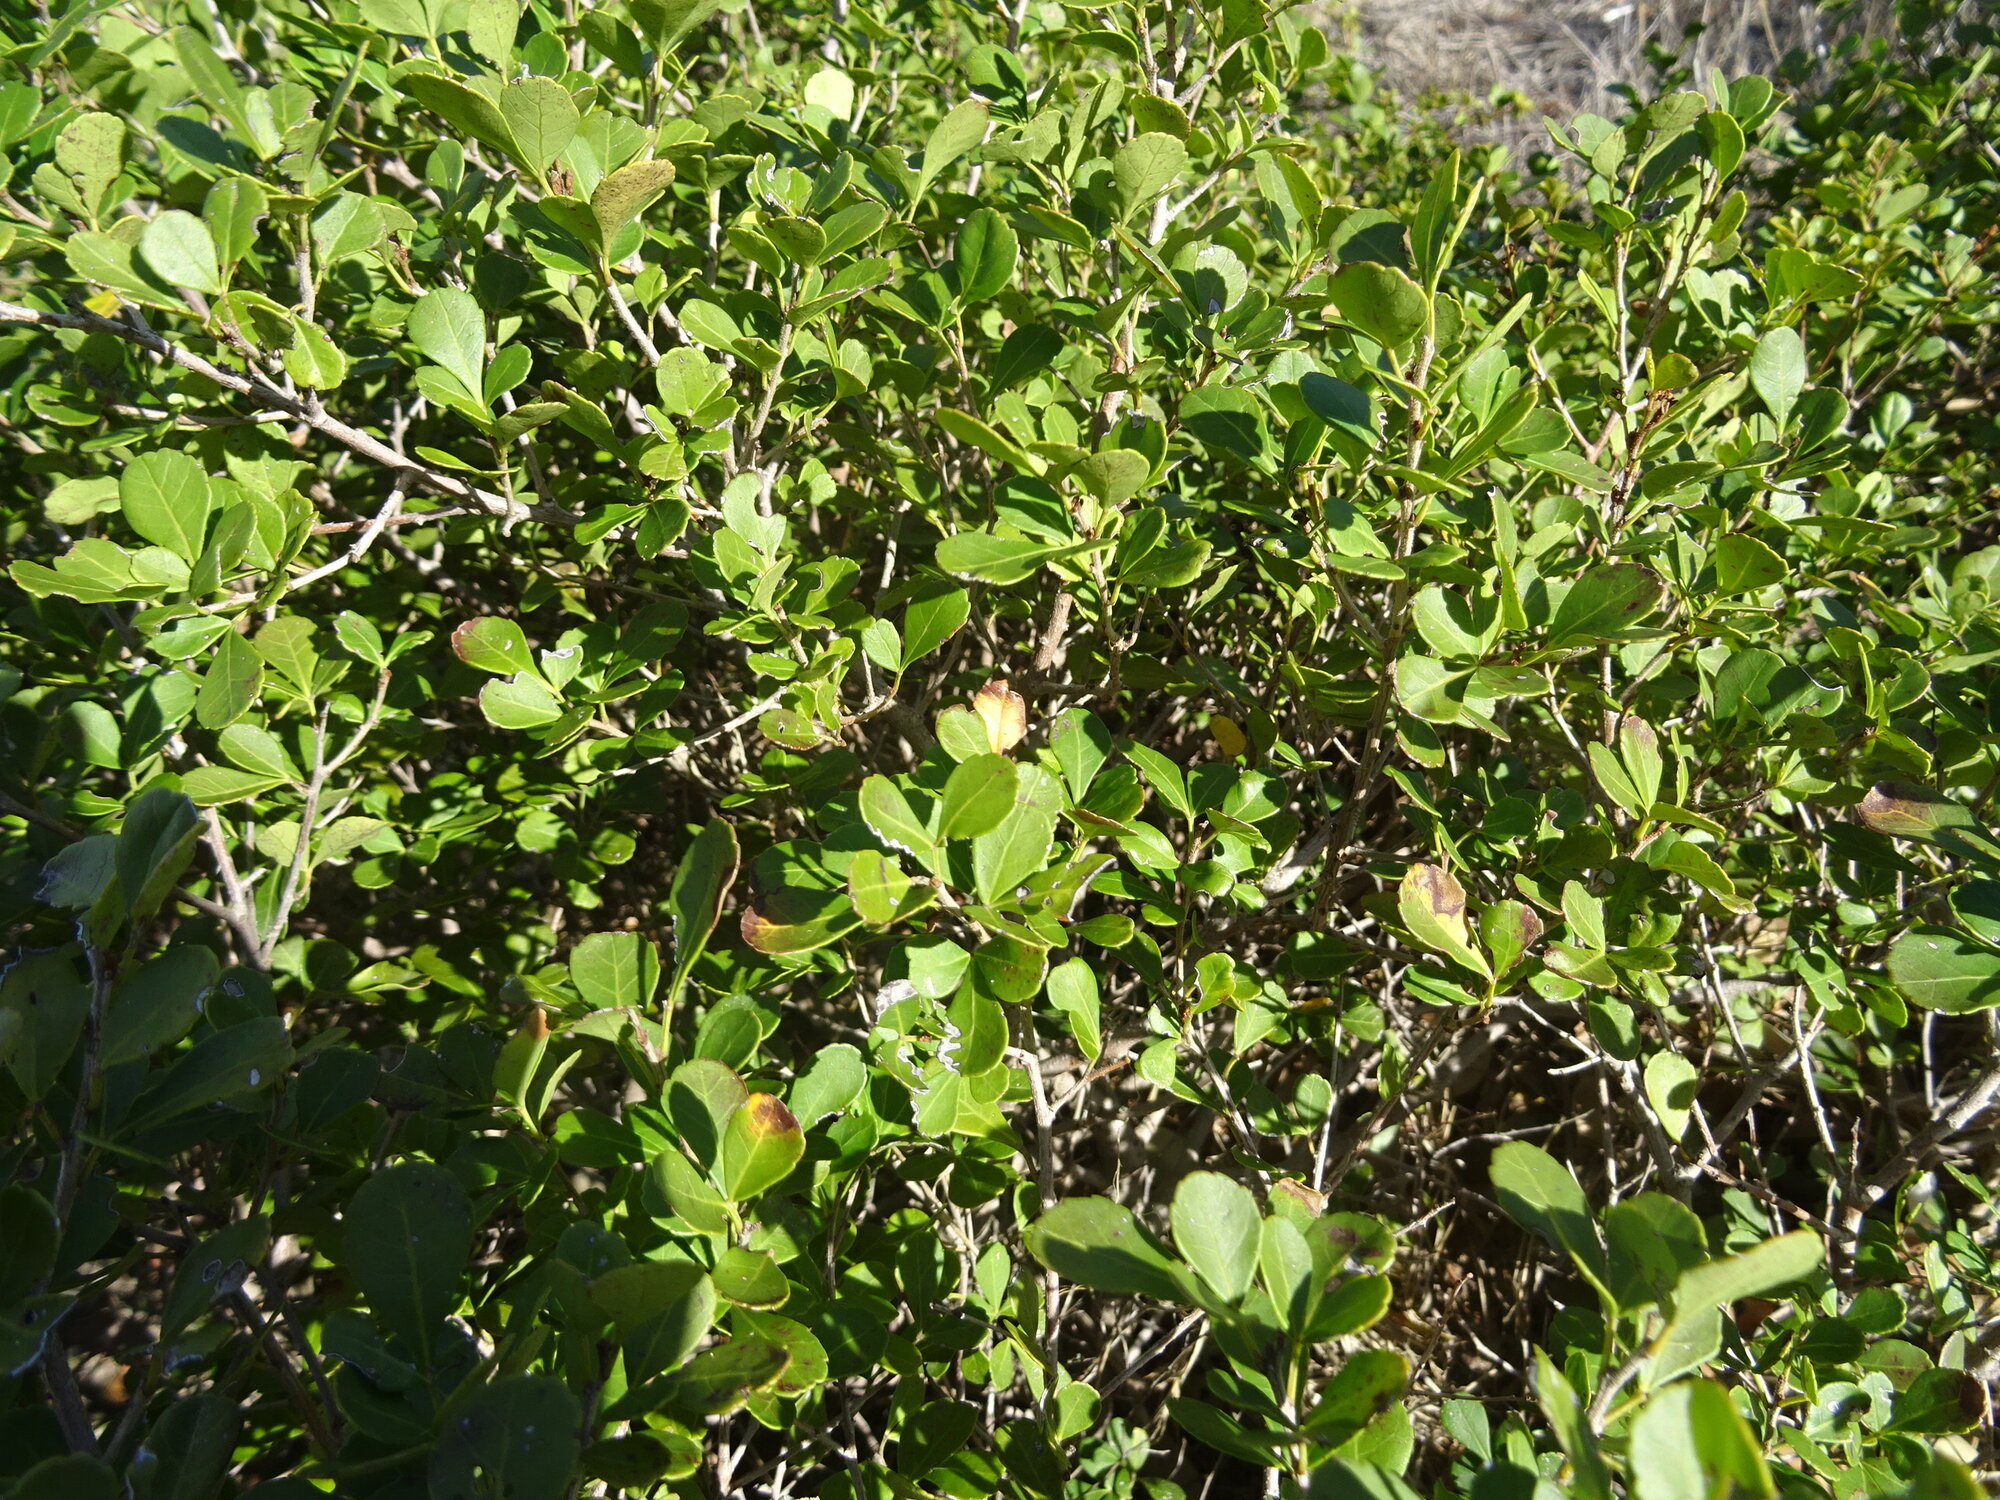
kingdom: Plantae
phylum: Tracheophyta
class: Magnoliopsida
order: Sapindales
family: Anacardiaceae
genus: Searsia
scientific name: Searsia crenata
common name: Crowberry
